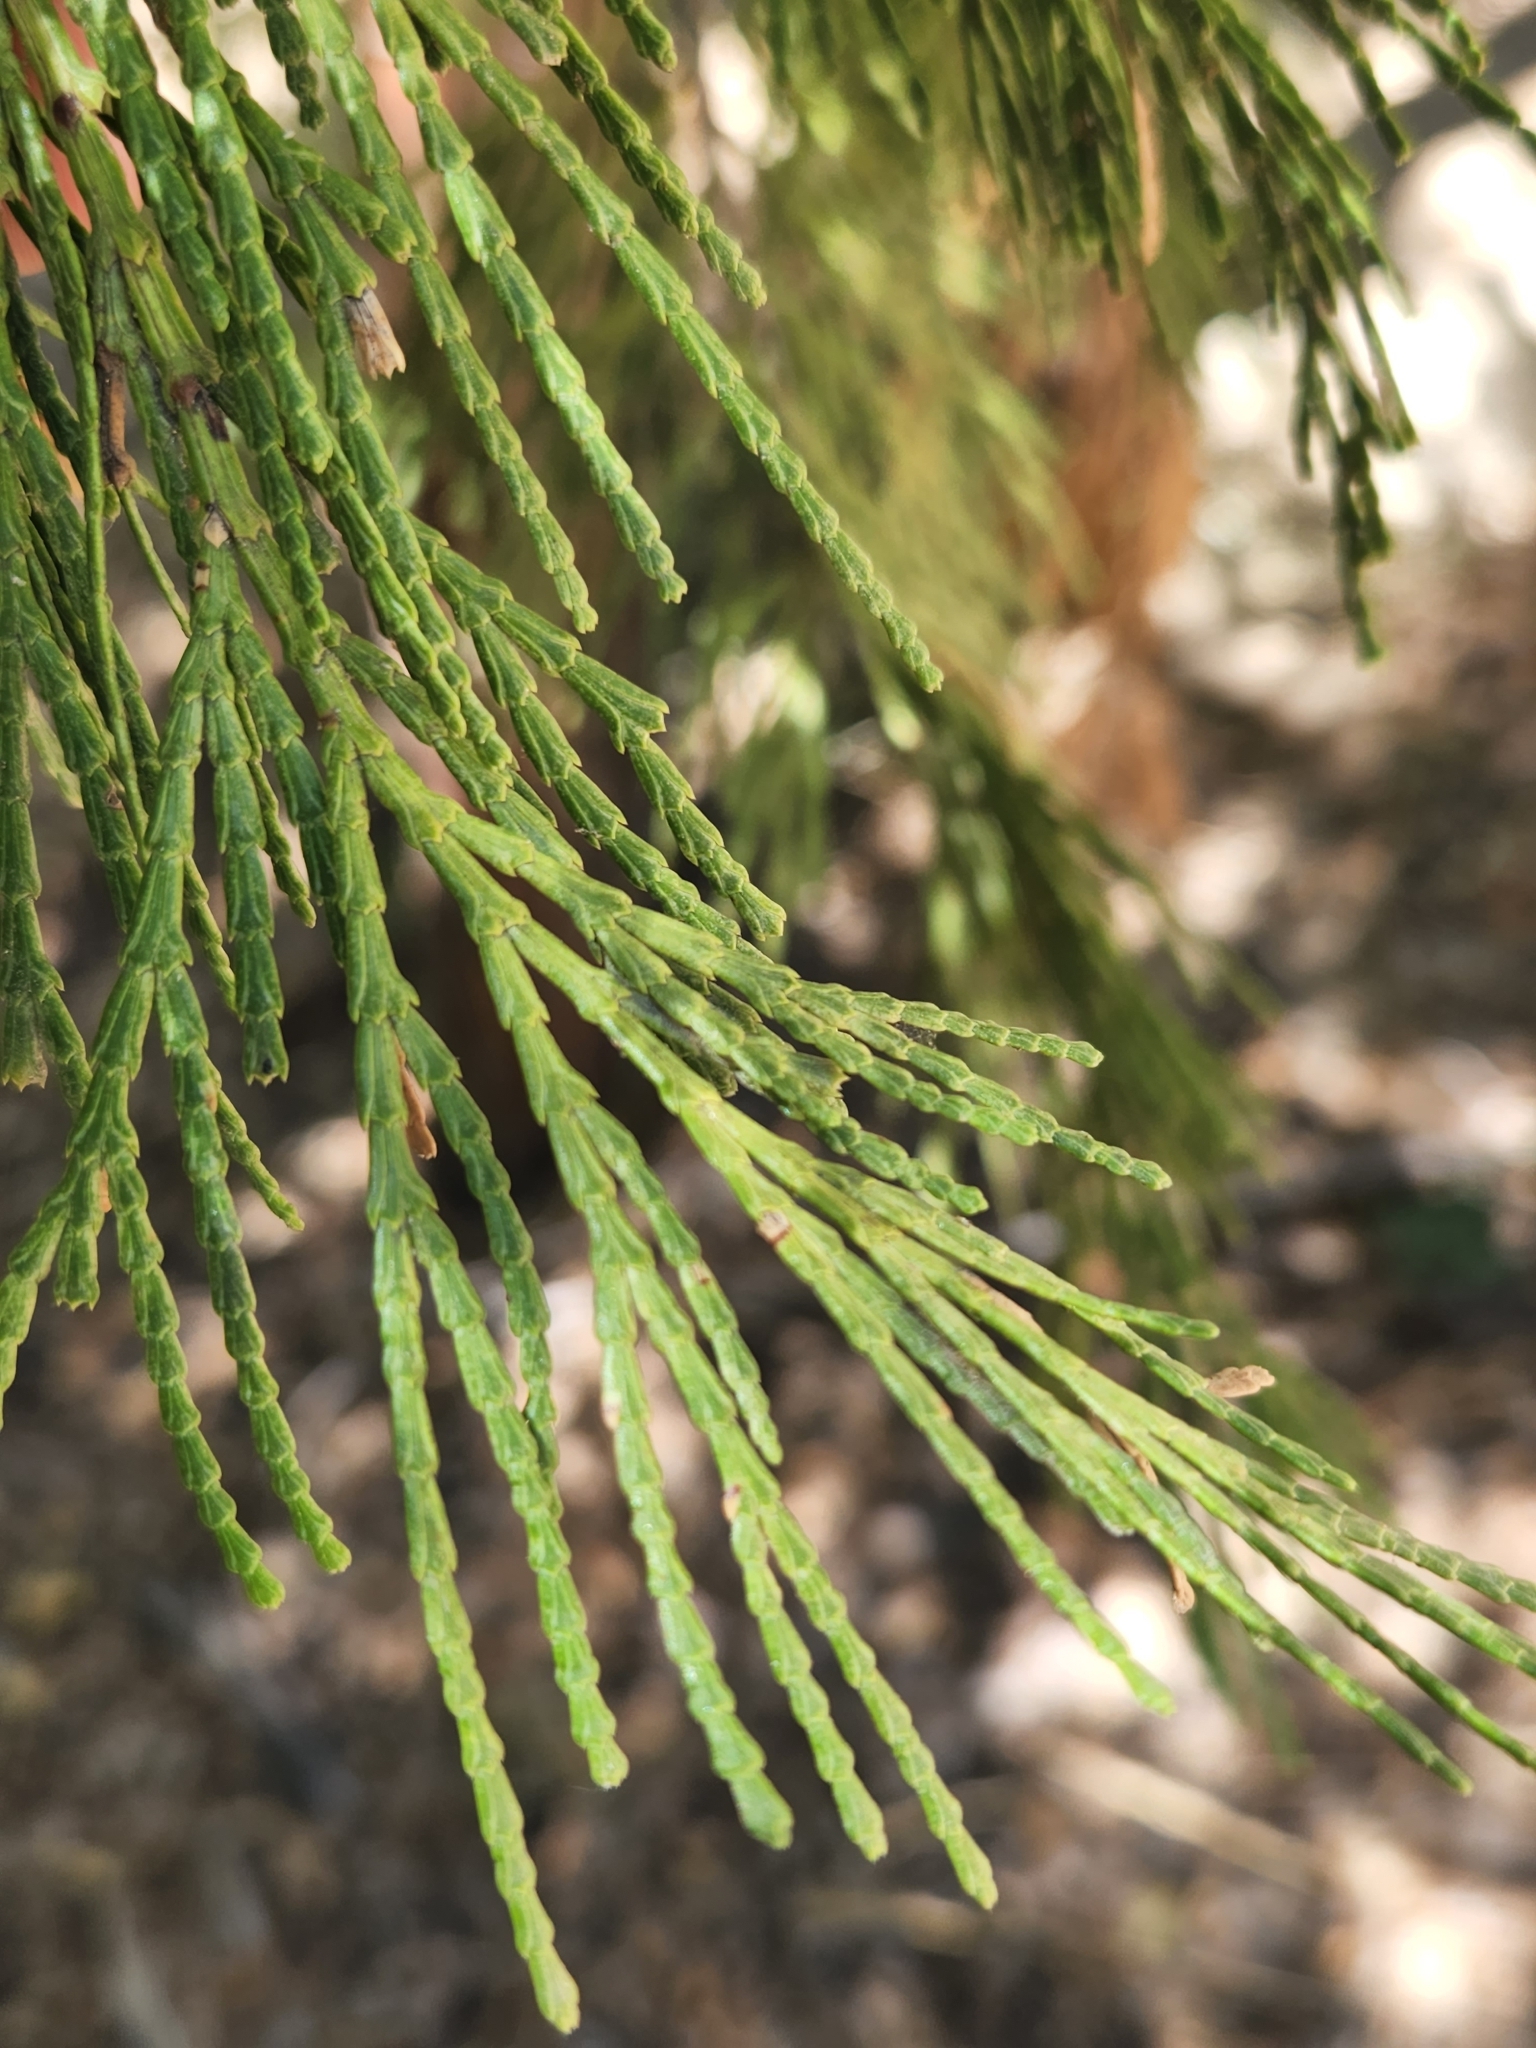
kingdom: Plantae
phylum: Tracheophyta
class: Pinopsida
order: Pinales
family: Cupressaceae
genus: Calocedrus
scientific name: Calocedrus decurrens
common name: Californian incense-cedar
